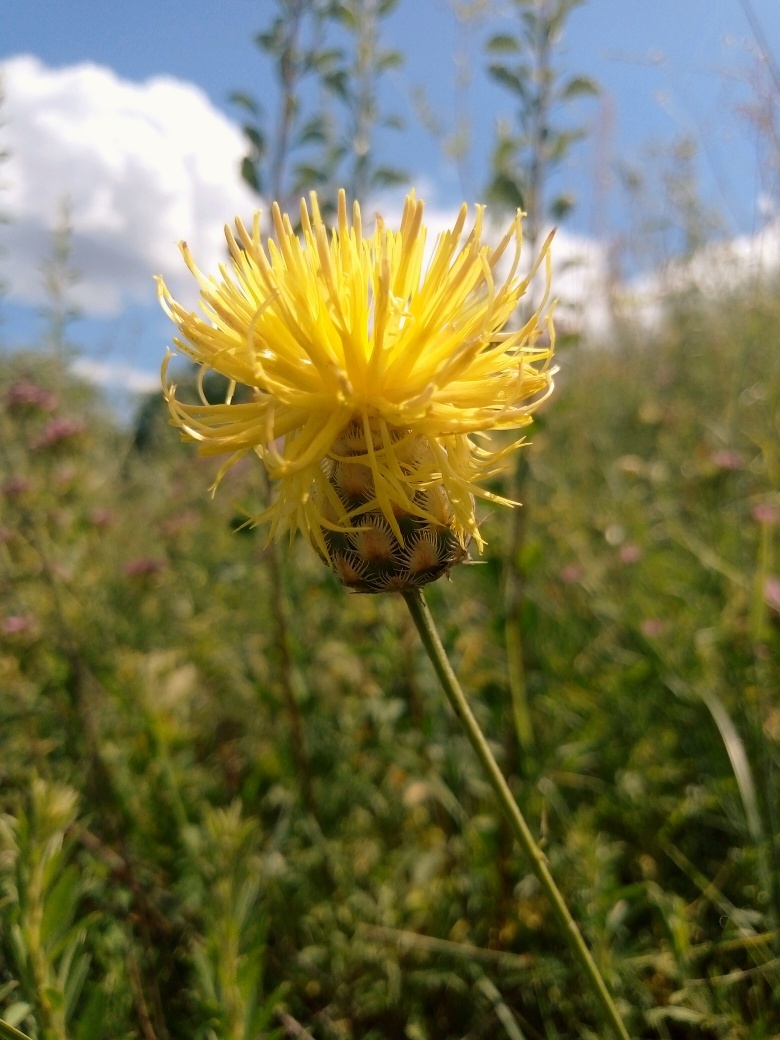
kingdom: Plantae
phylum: Tracheophyta
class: Magnoliopsida
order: Asterales
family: Asteraceae
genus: Centaurea
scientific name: Centaurea orientalis
